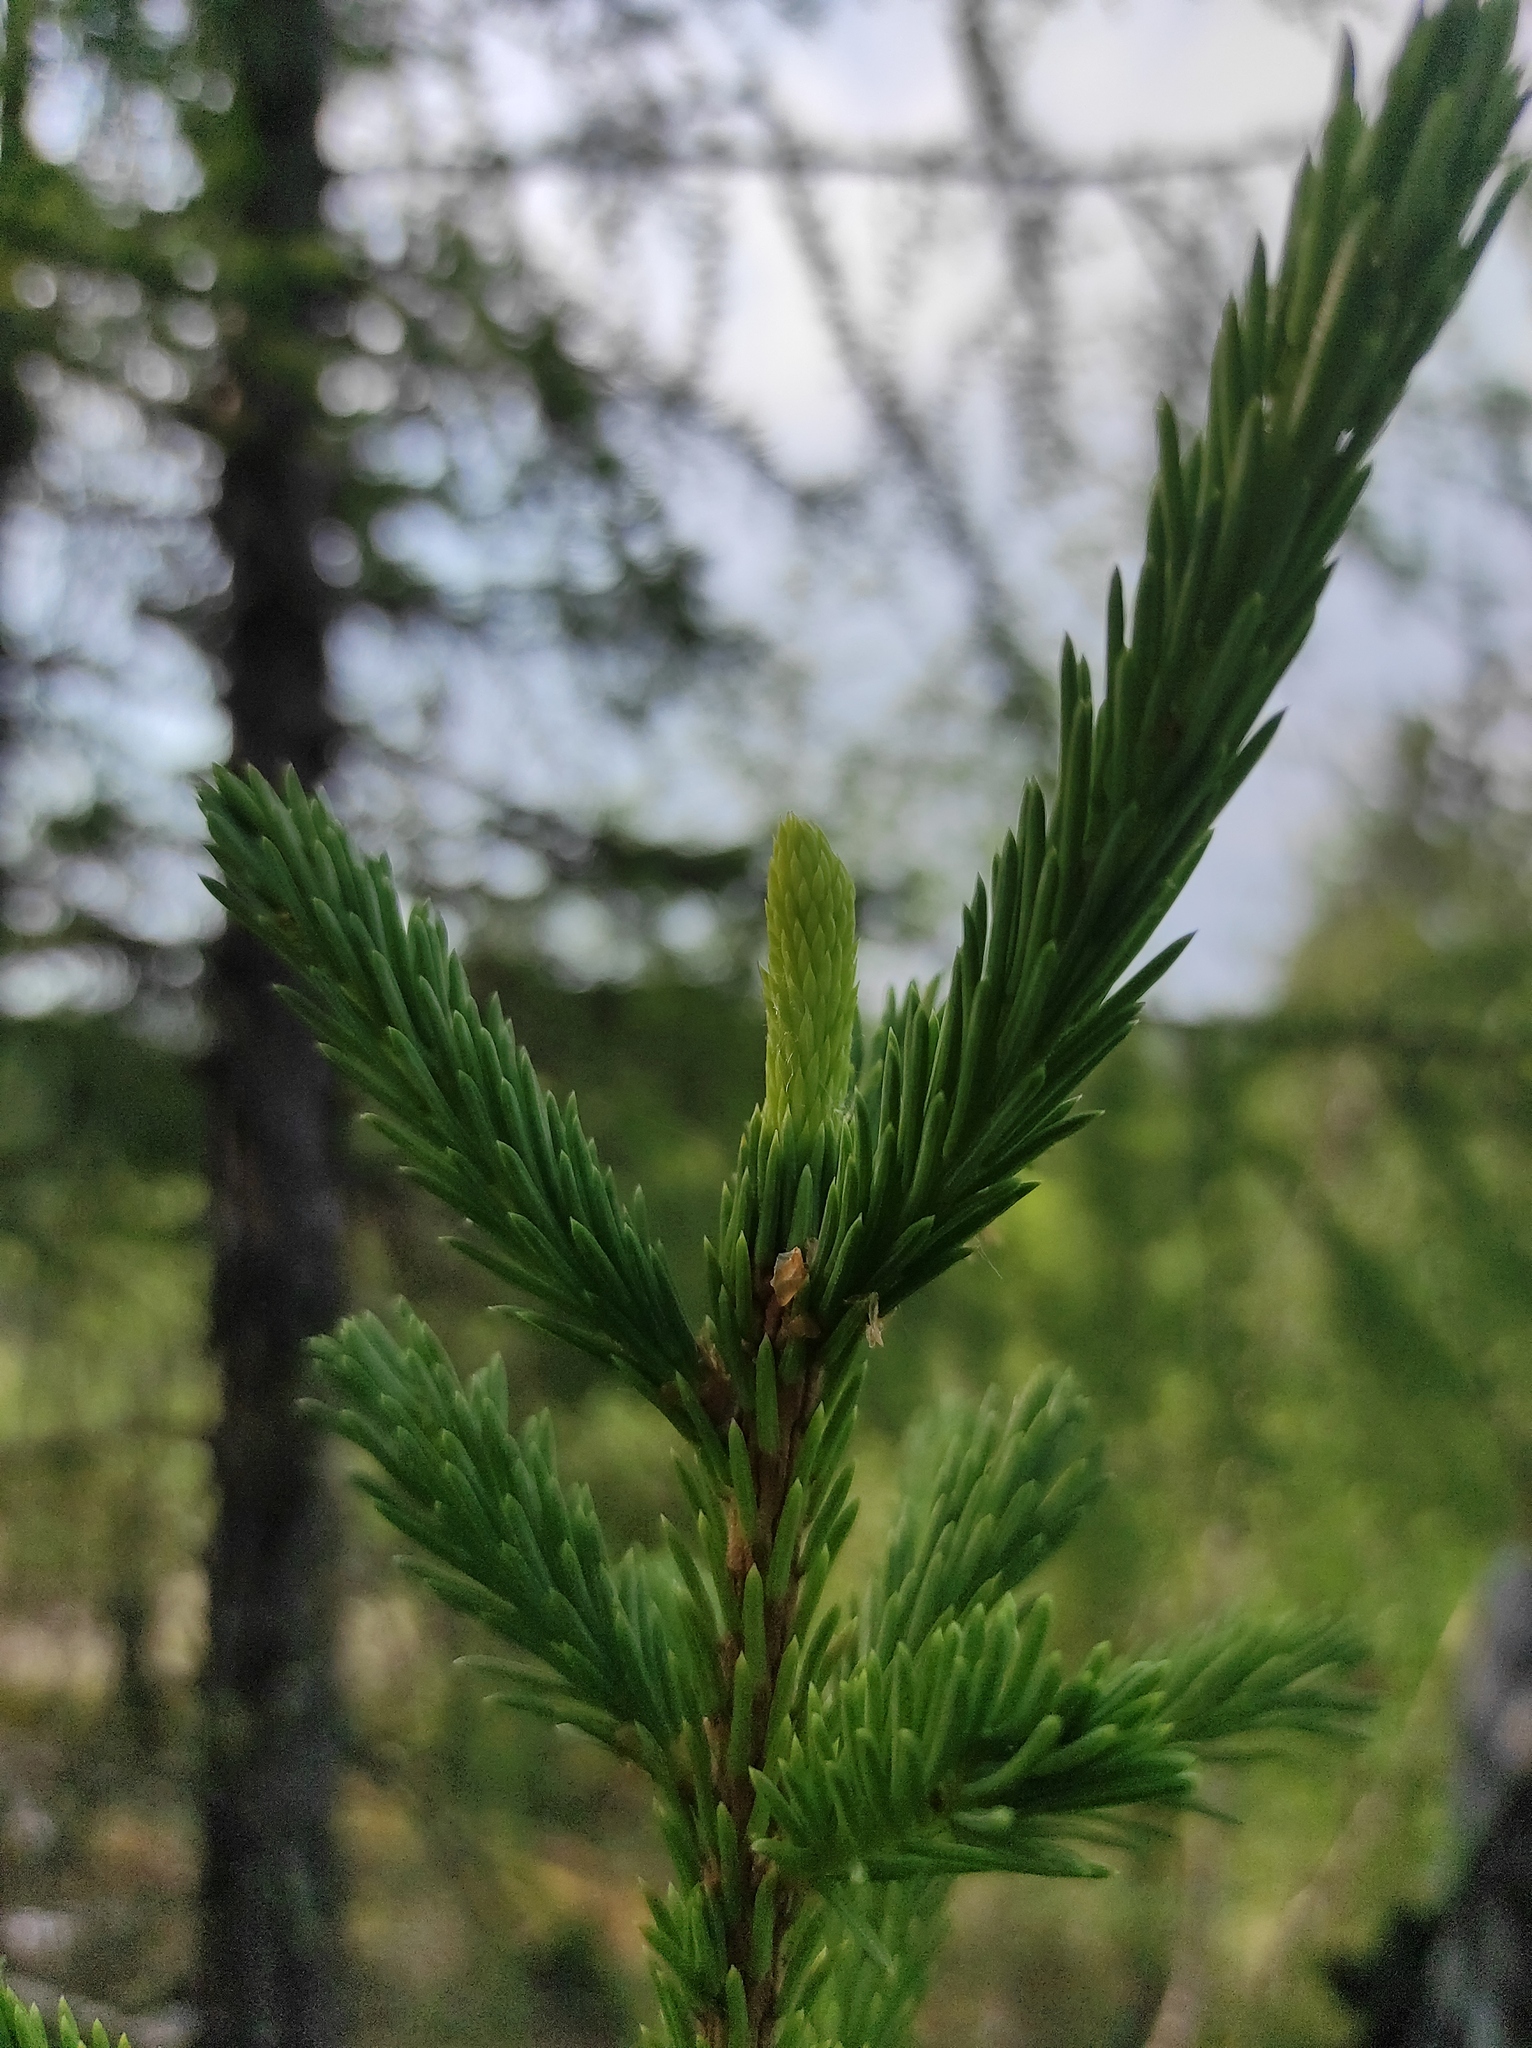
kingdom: Plantae
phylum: Tracheophyta
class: Pinopsida
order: Pinales
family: Pinaceae
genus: Picea
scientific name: Picea obovata
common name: Siberian spruce
